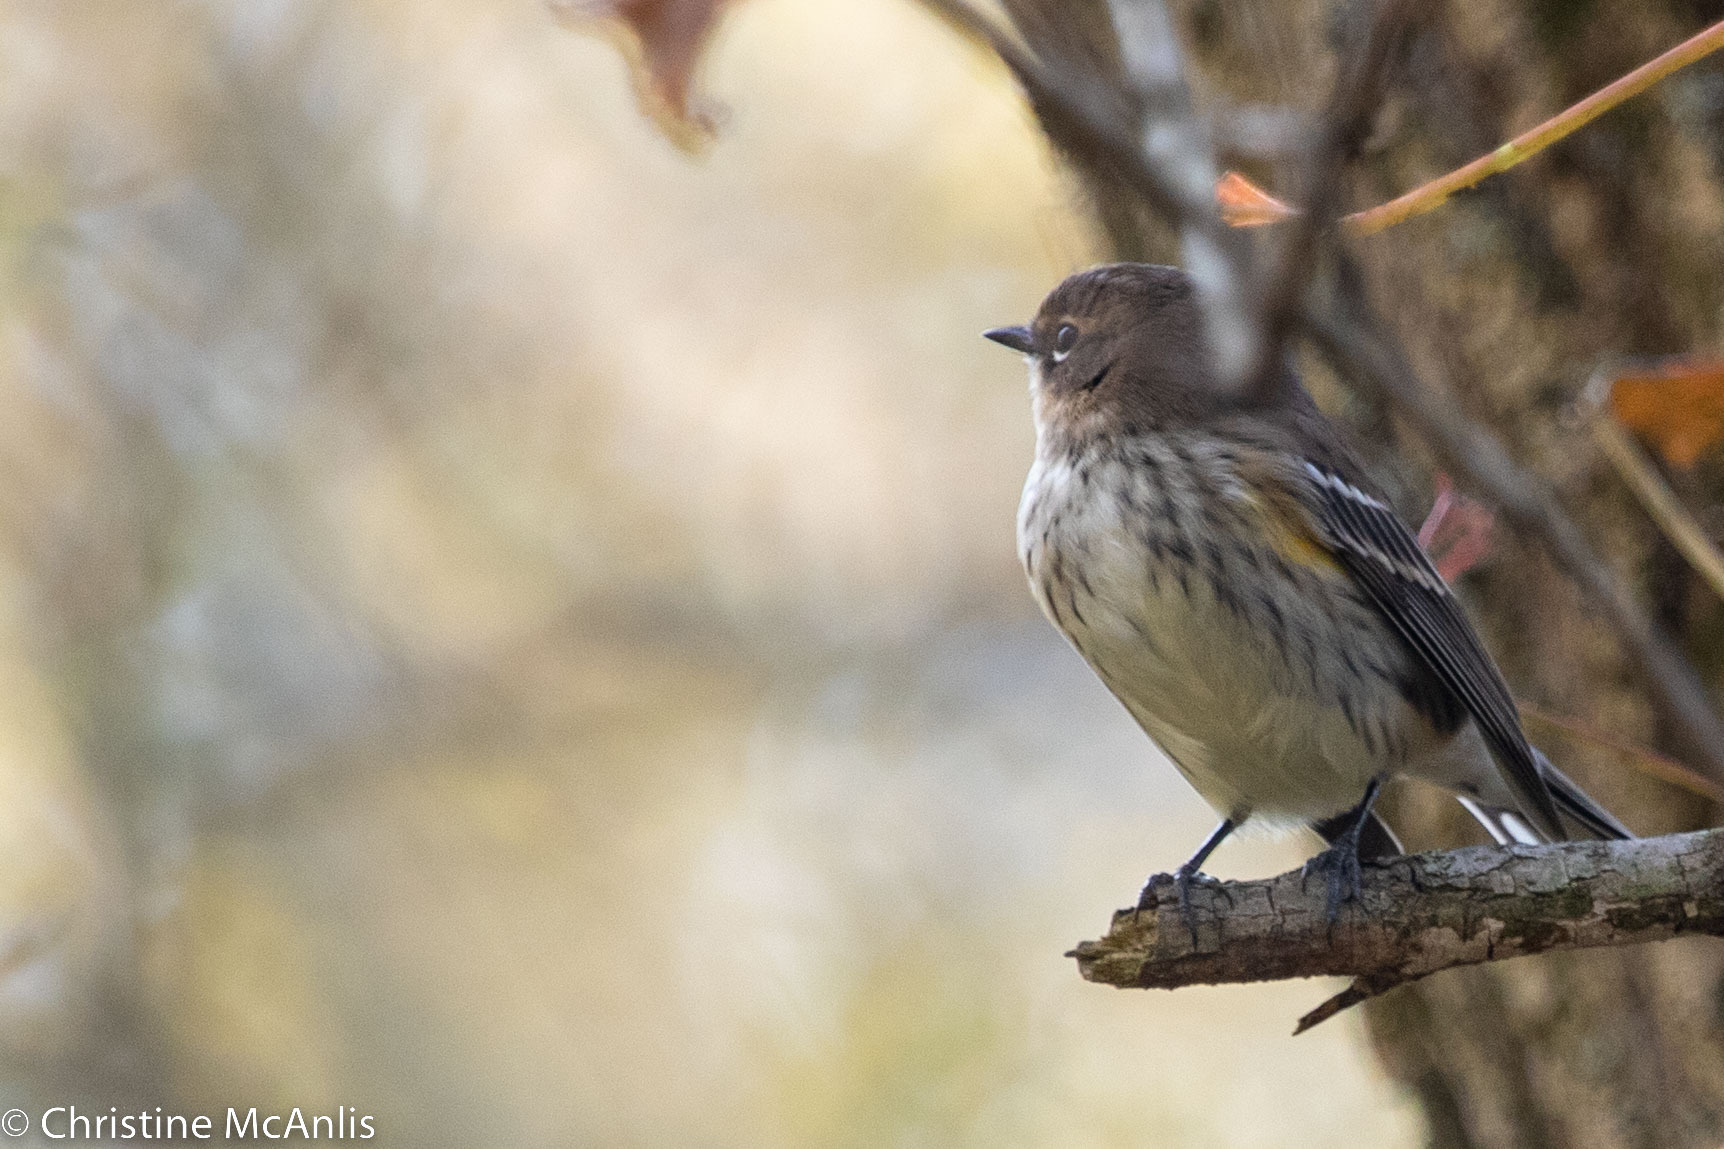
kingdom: Animalia
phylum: Chordata
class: Aves
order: Passeriformes
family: Parulidae
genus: Setophaga
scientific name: Setophaga coronata
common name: Myrtle warbler
